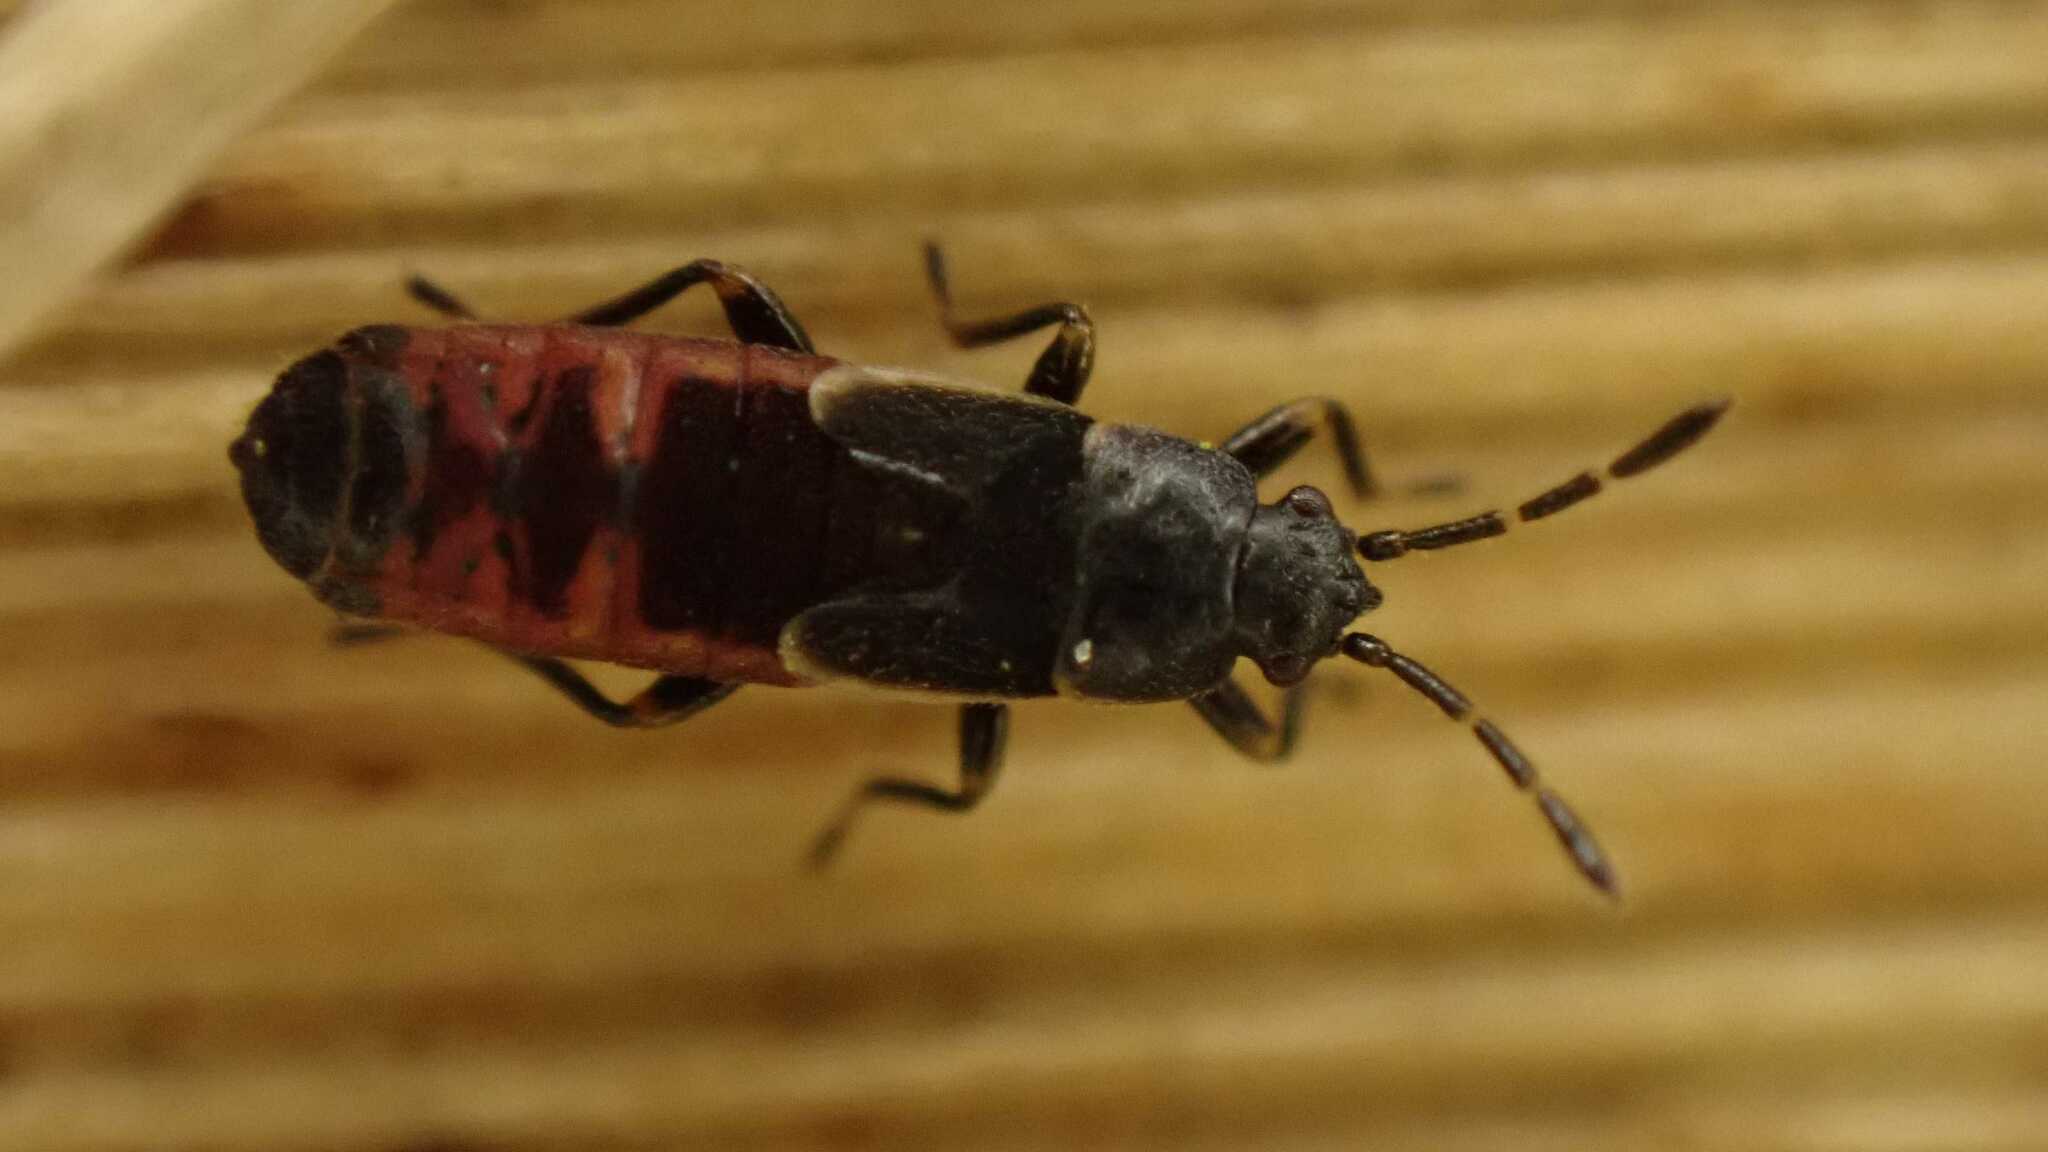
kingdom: Animalia
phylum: Arthropoda
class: Insecta
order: Hemiptera
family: Blissidae
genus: Ischnodemus
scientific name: Ischnodemus sabuleti
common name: European cinchbug
